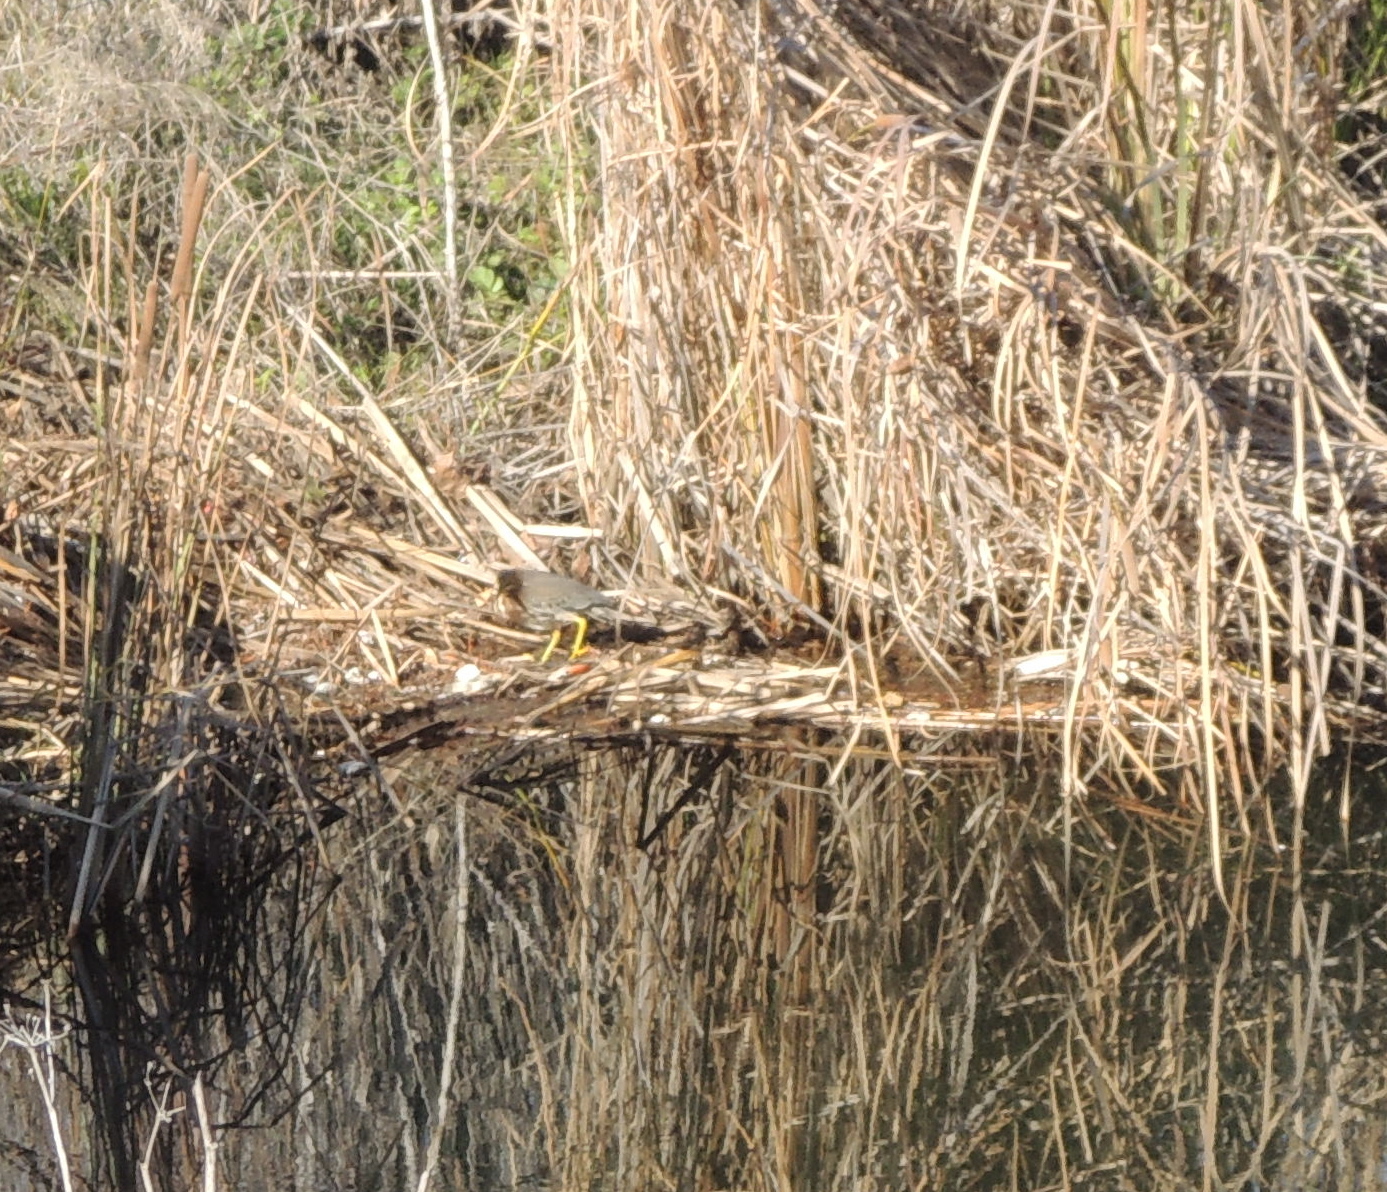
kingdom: Animalia
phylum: Chordata
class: Aves
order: Pelecaniformes
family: Ardeidae
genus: Butorides
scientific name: Butorides virescens
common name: Green heron
